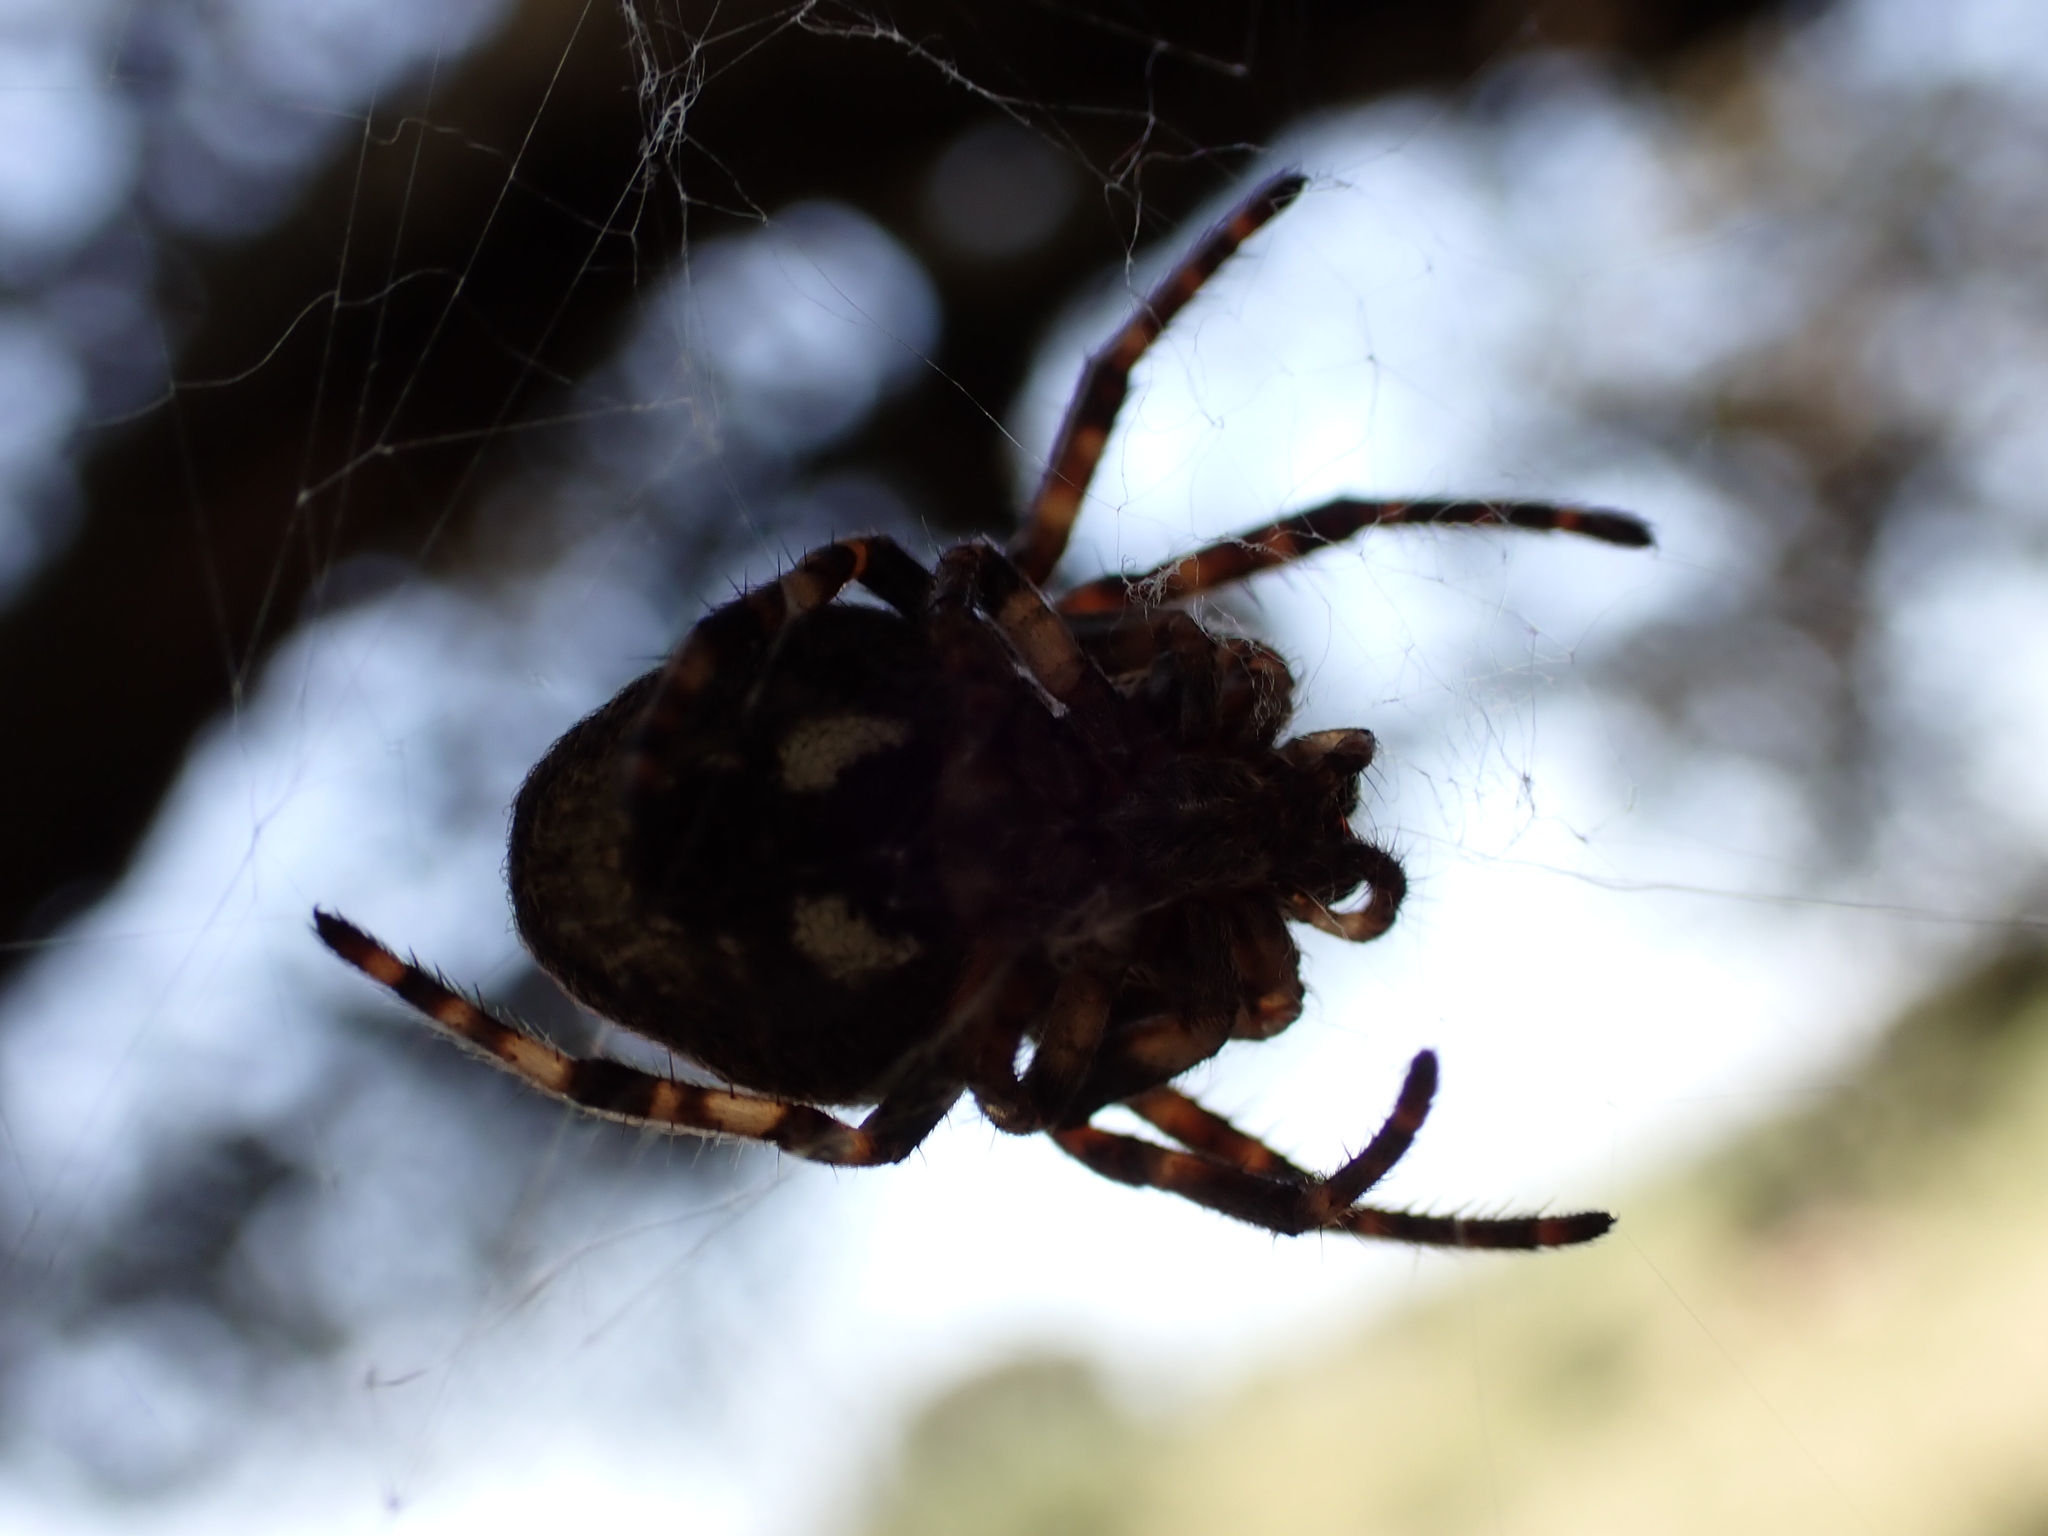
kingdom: Animalia
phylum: Arthropoda
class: Arachnida
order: Araneae
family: Araneidae
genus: Nuctenea
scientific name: Nuctenea umbratica
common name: Toad spider
